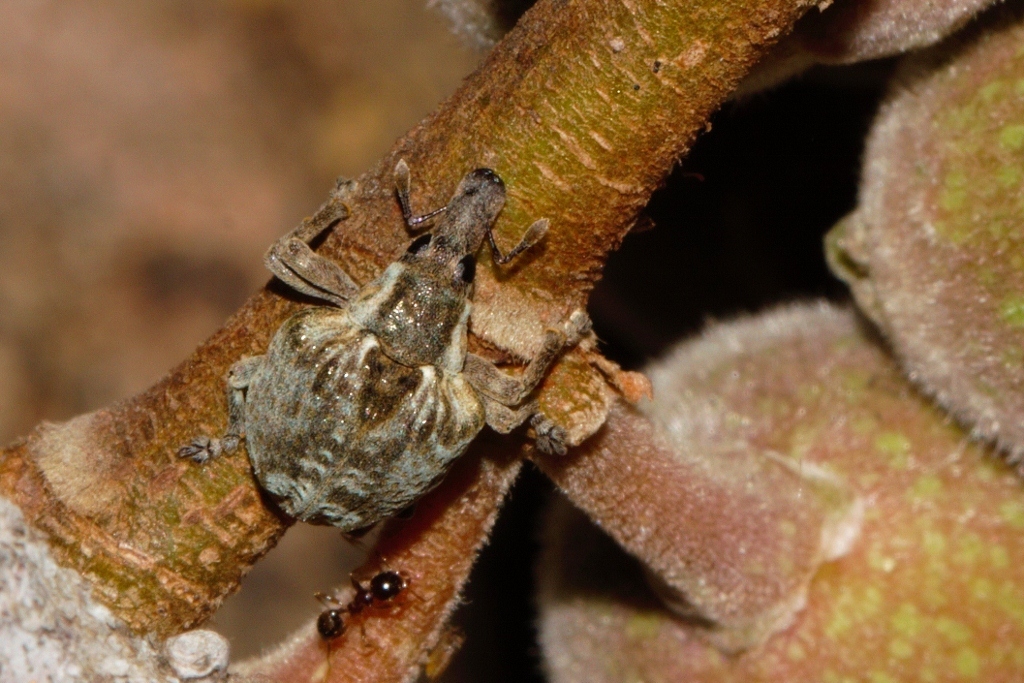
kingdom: Animalia
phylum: Arthropoda
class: Insecta
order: Coleoptera
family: Curculionidae
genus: Omophorus
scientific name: Omophorus stomachosus
